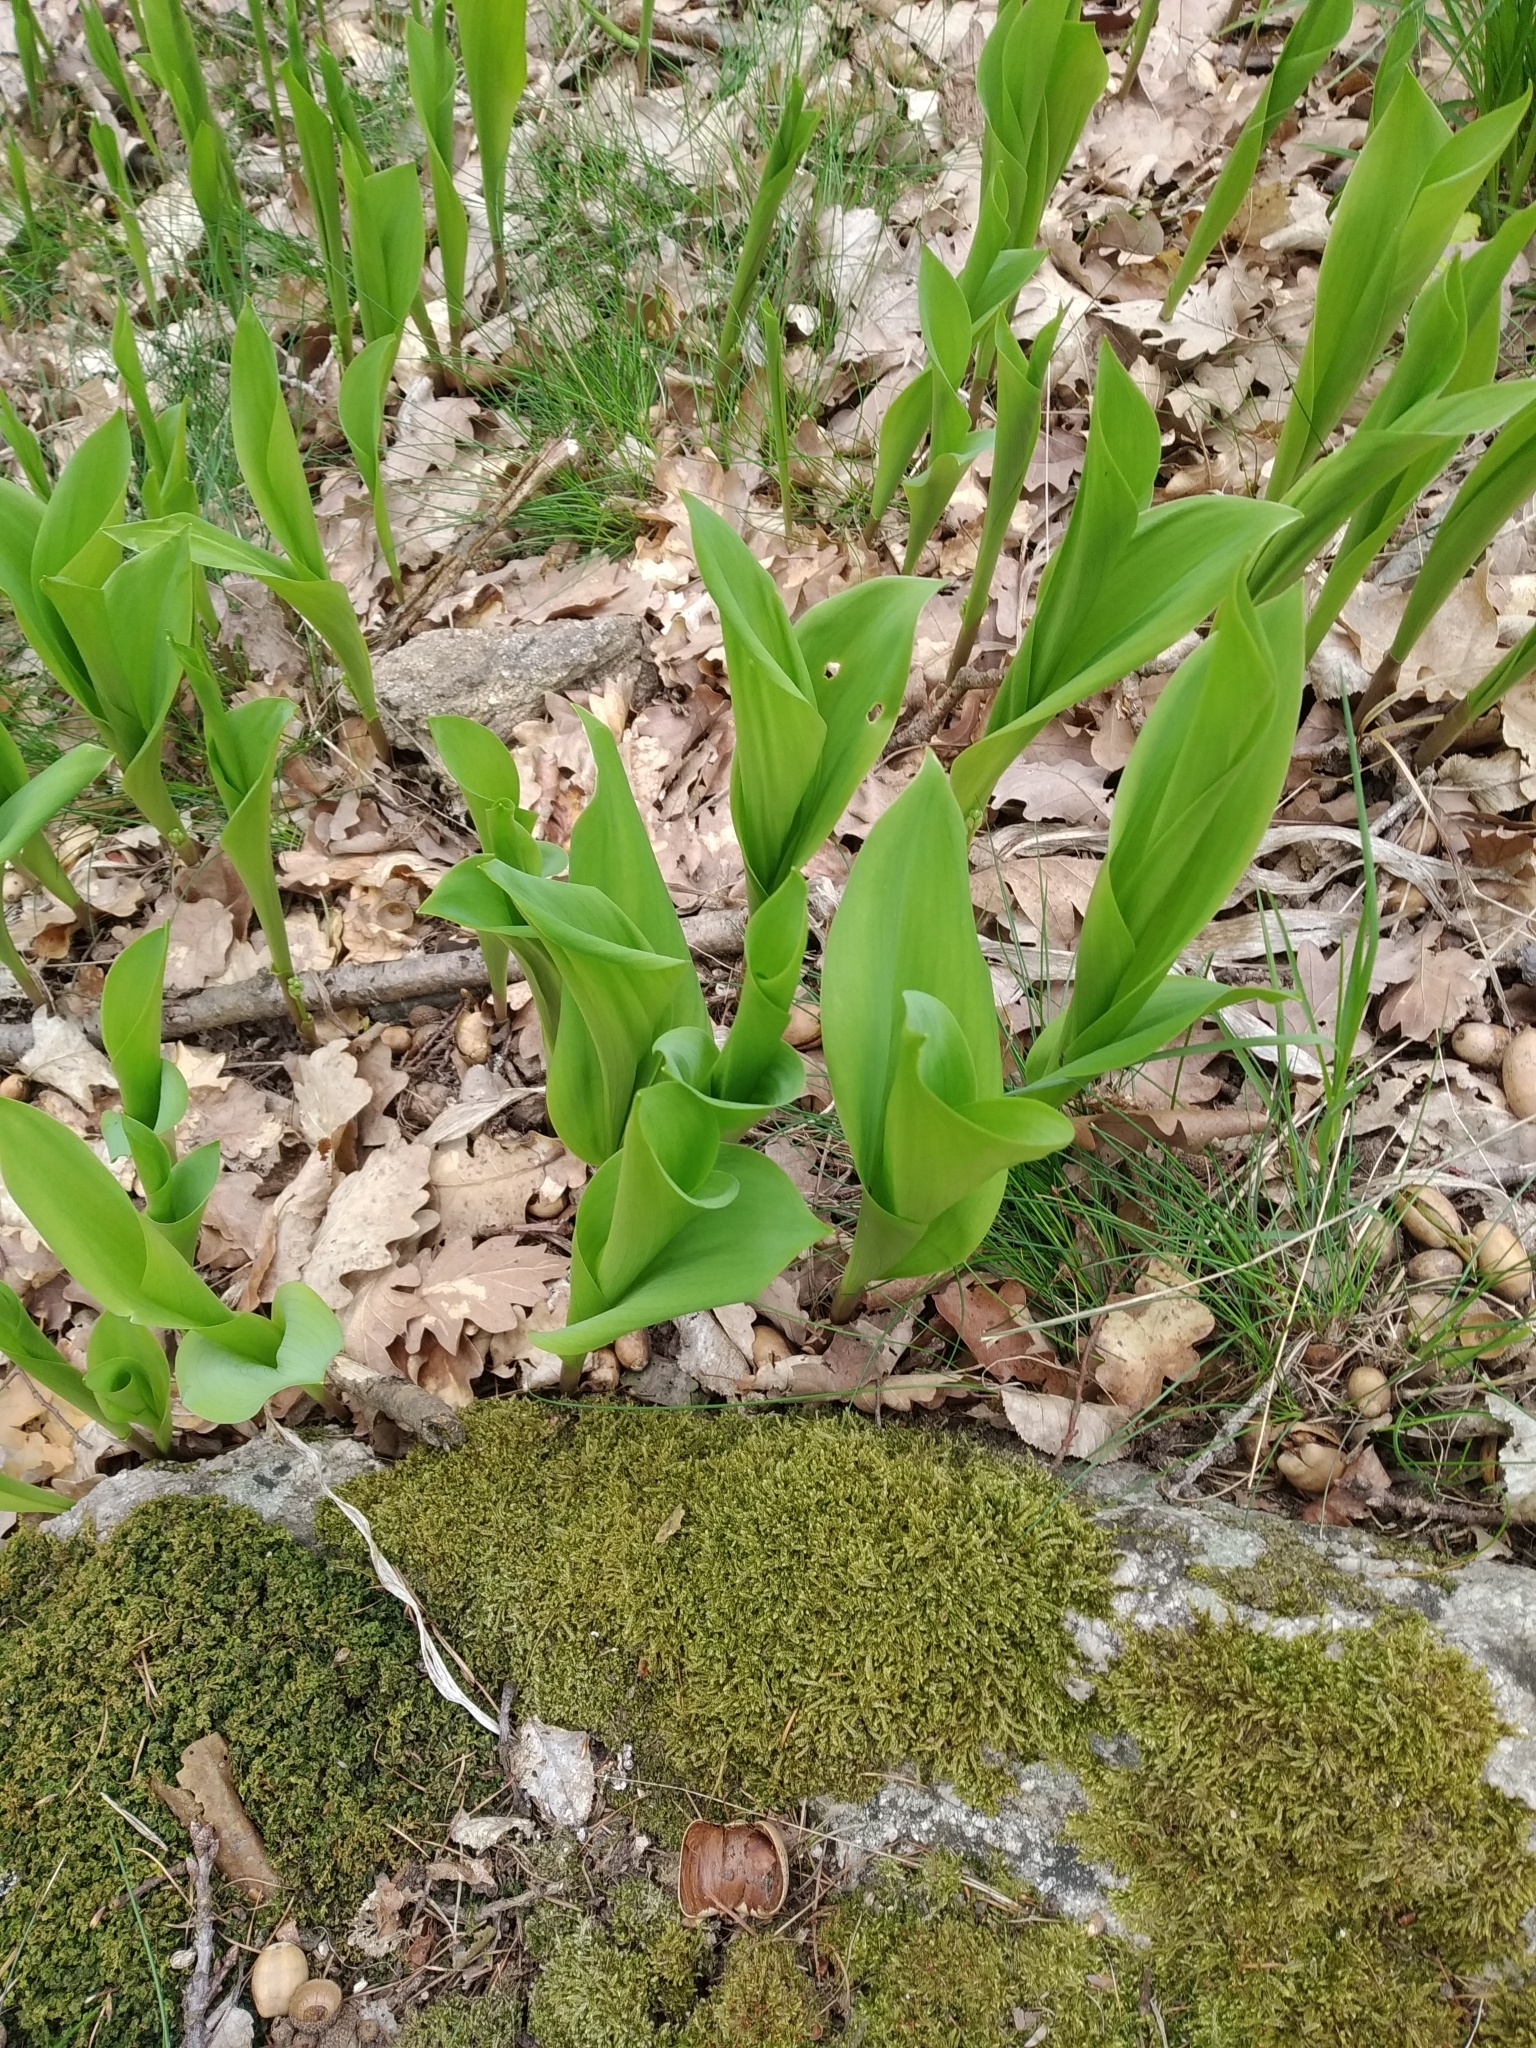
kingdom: Plantae
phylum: Tracheophyta
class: Liliopsida
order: Asparagales
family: Asparagaceae
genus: Convallaria
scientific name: Convallaria majalis
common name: Lily-of-the-valley
